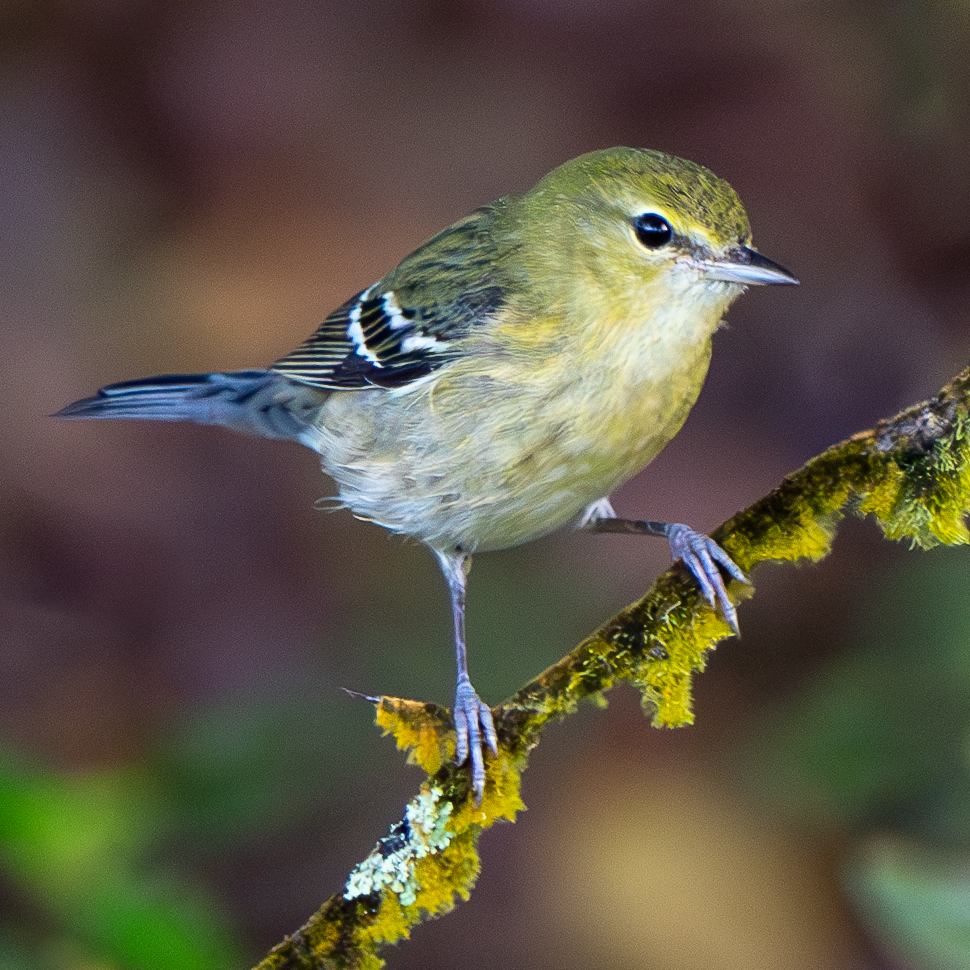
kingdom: Animalia
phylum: Chordata
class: Aves
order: Passeriformes
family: Parulidae
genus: Setophaga
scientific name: Setophaga castanea
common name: Bay-breasted warbler
